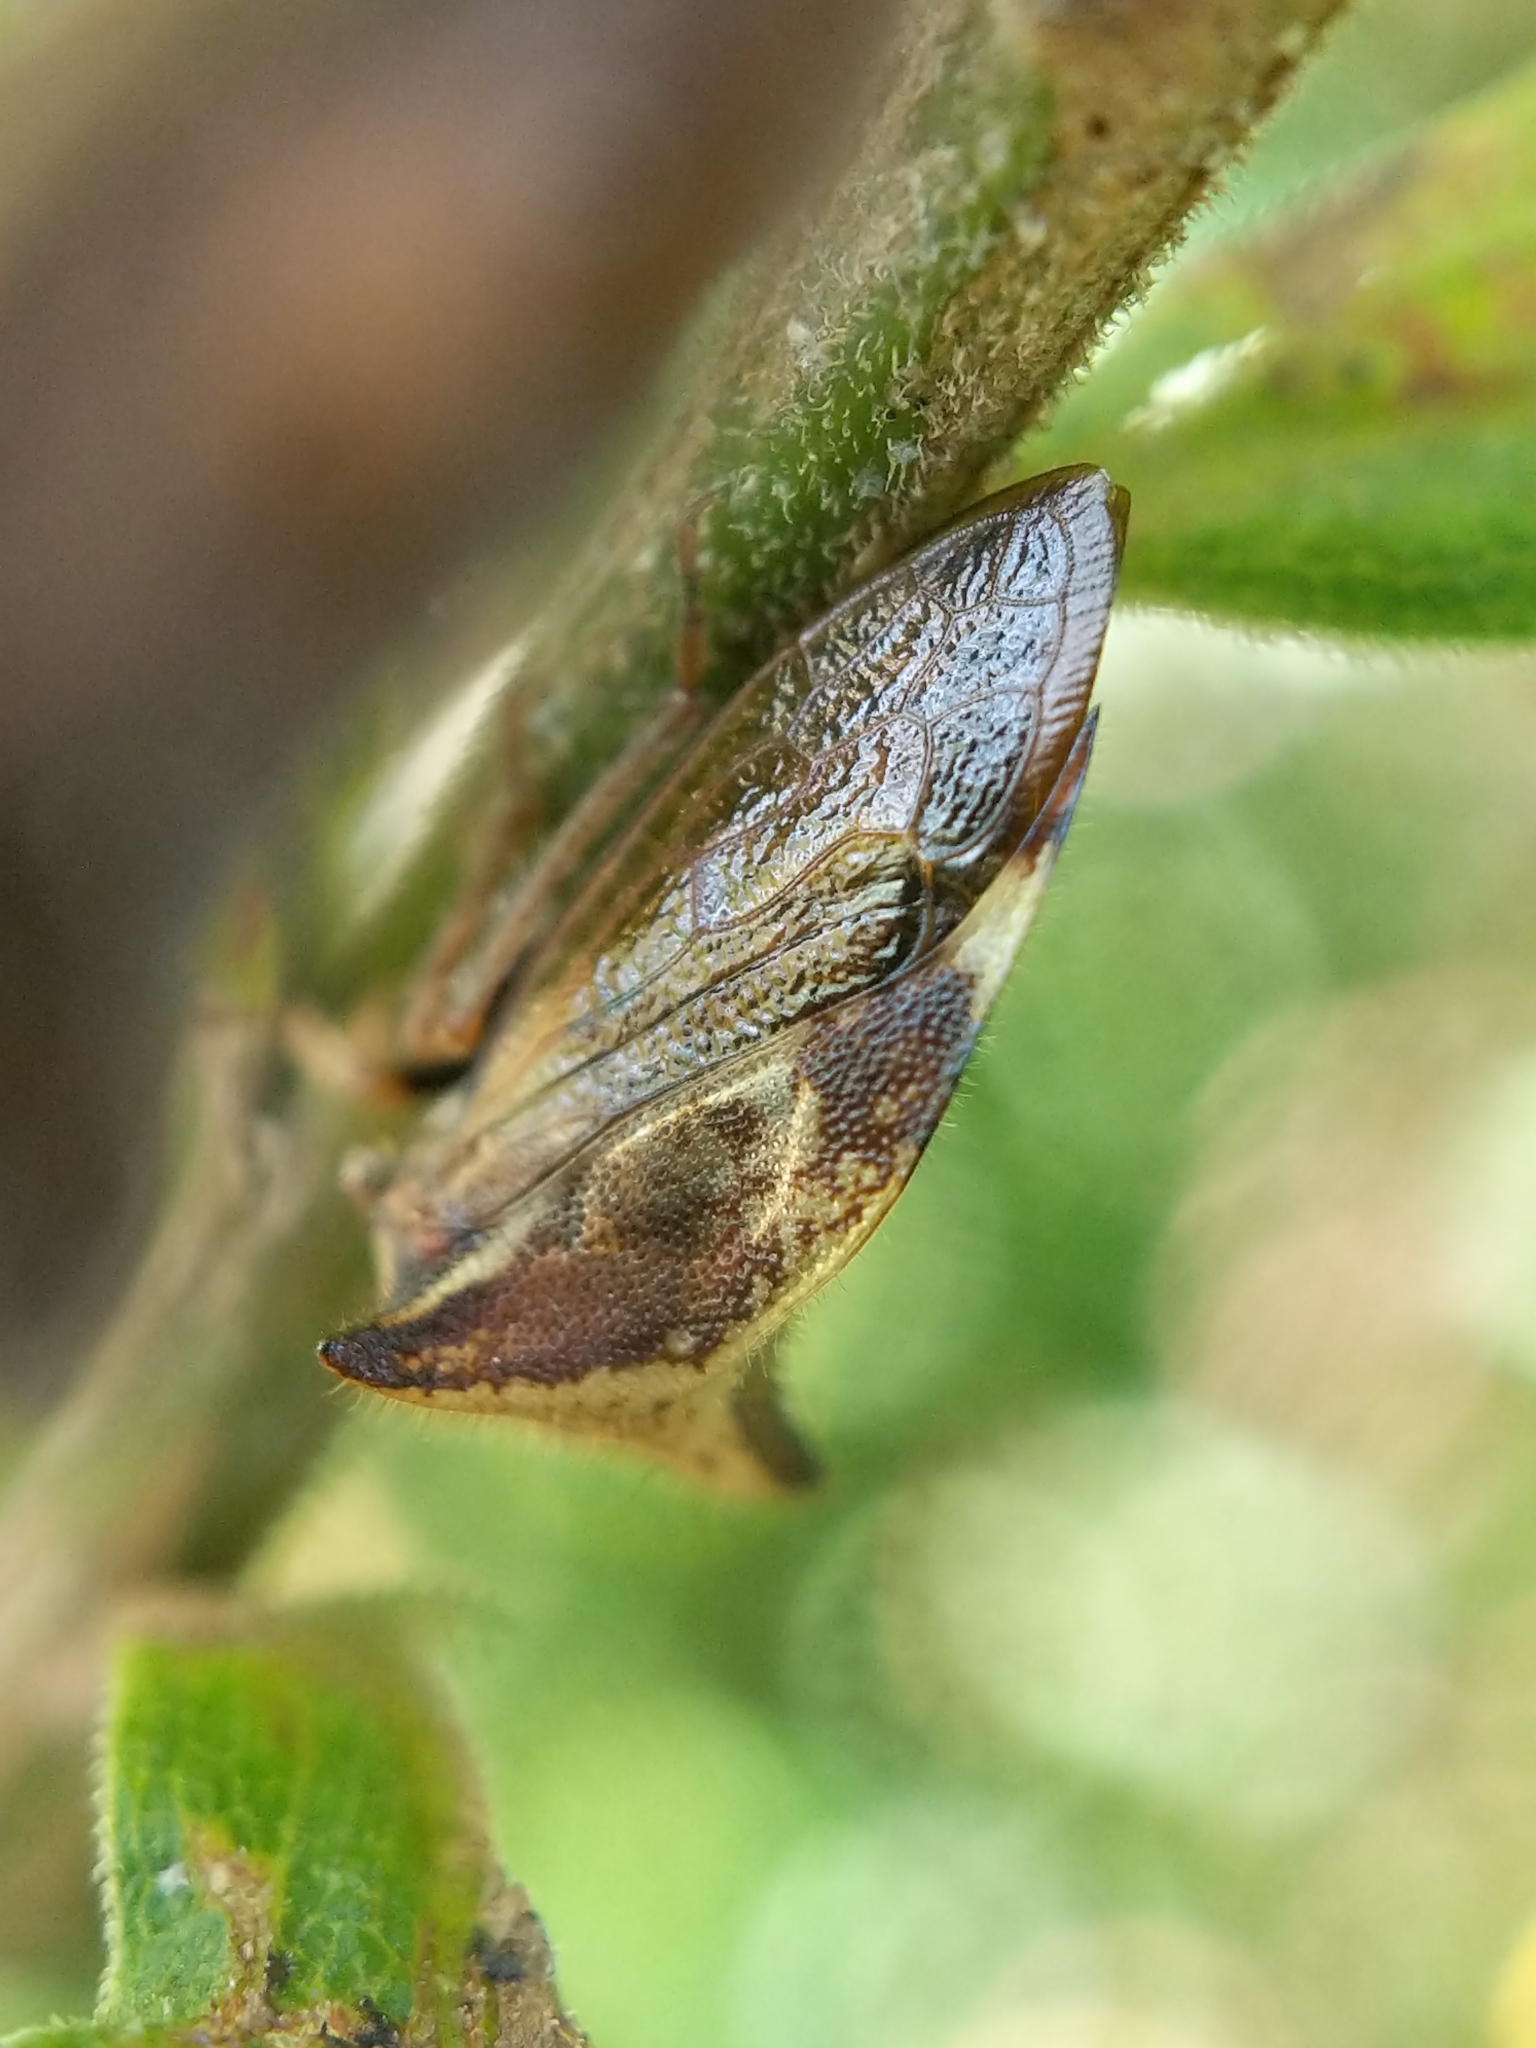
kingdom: Animalia
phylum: Arthropoda
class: Insecta
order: Hemiptera
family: Membracidae
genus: Stictocephala
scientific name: Stictocephala diceros
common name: Two-horned treehopper
